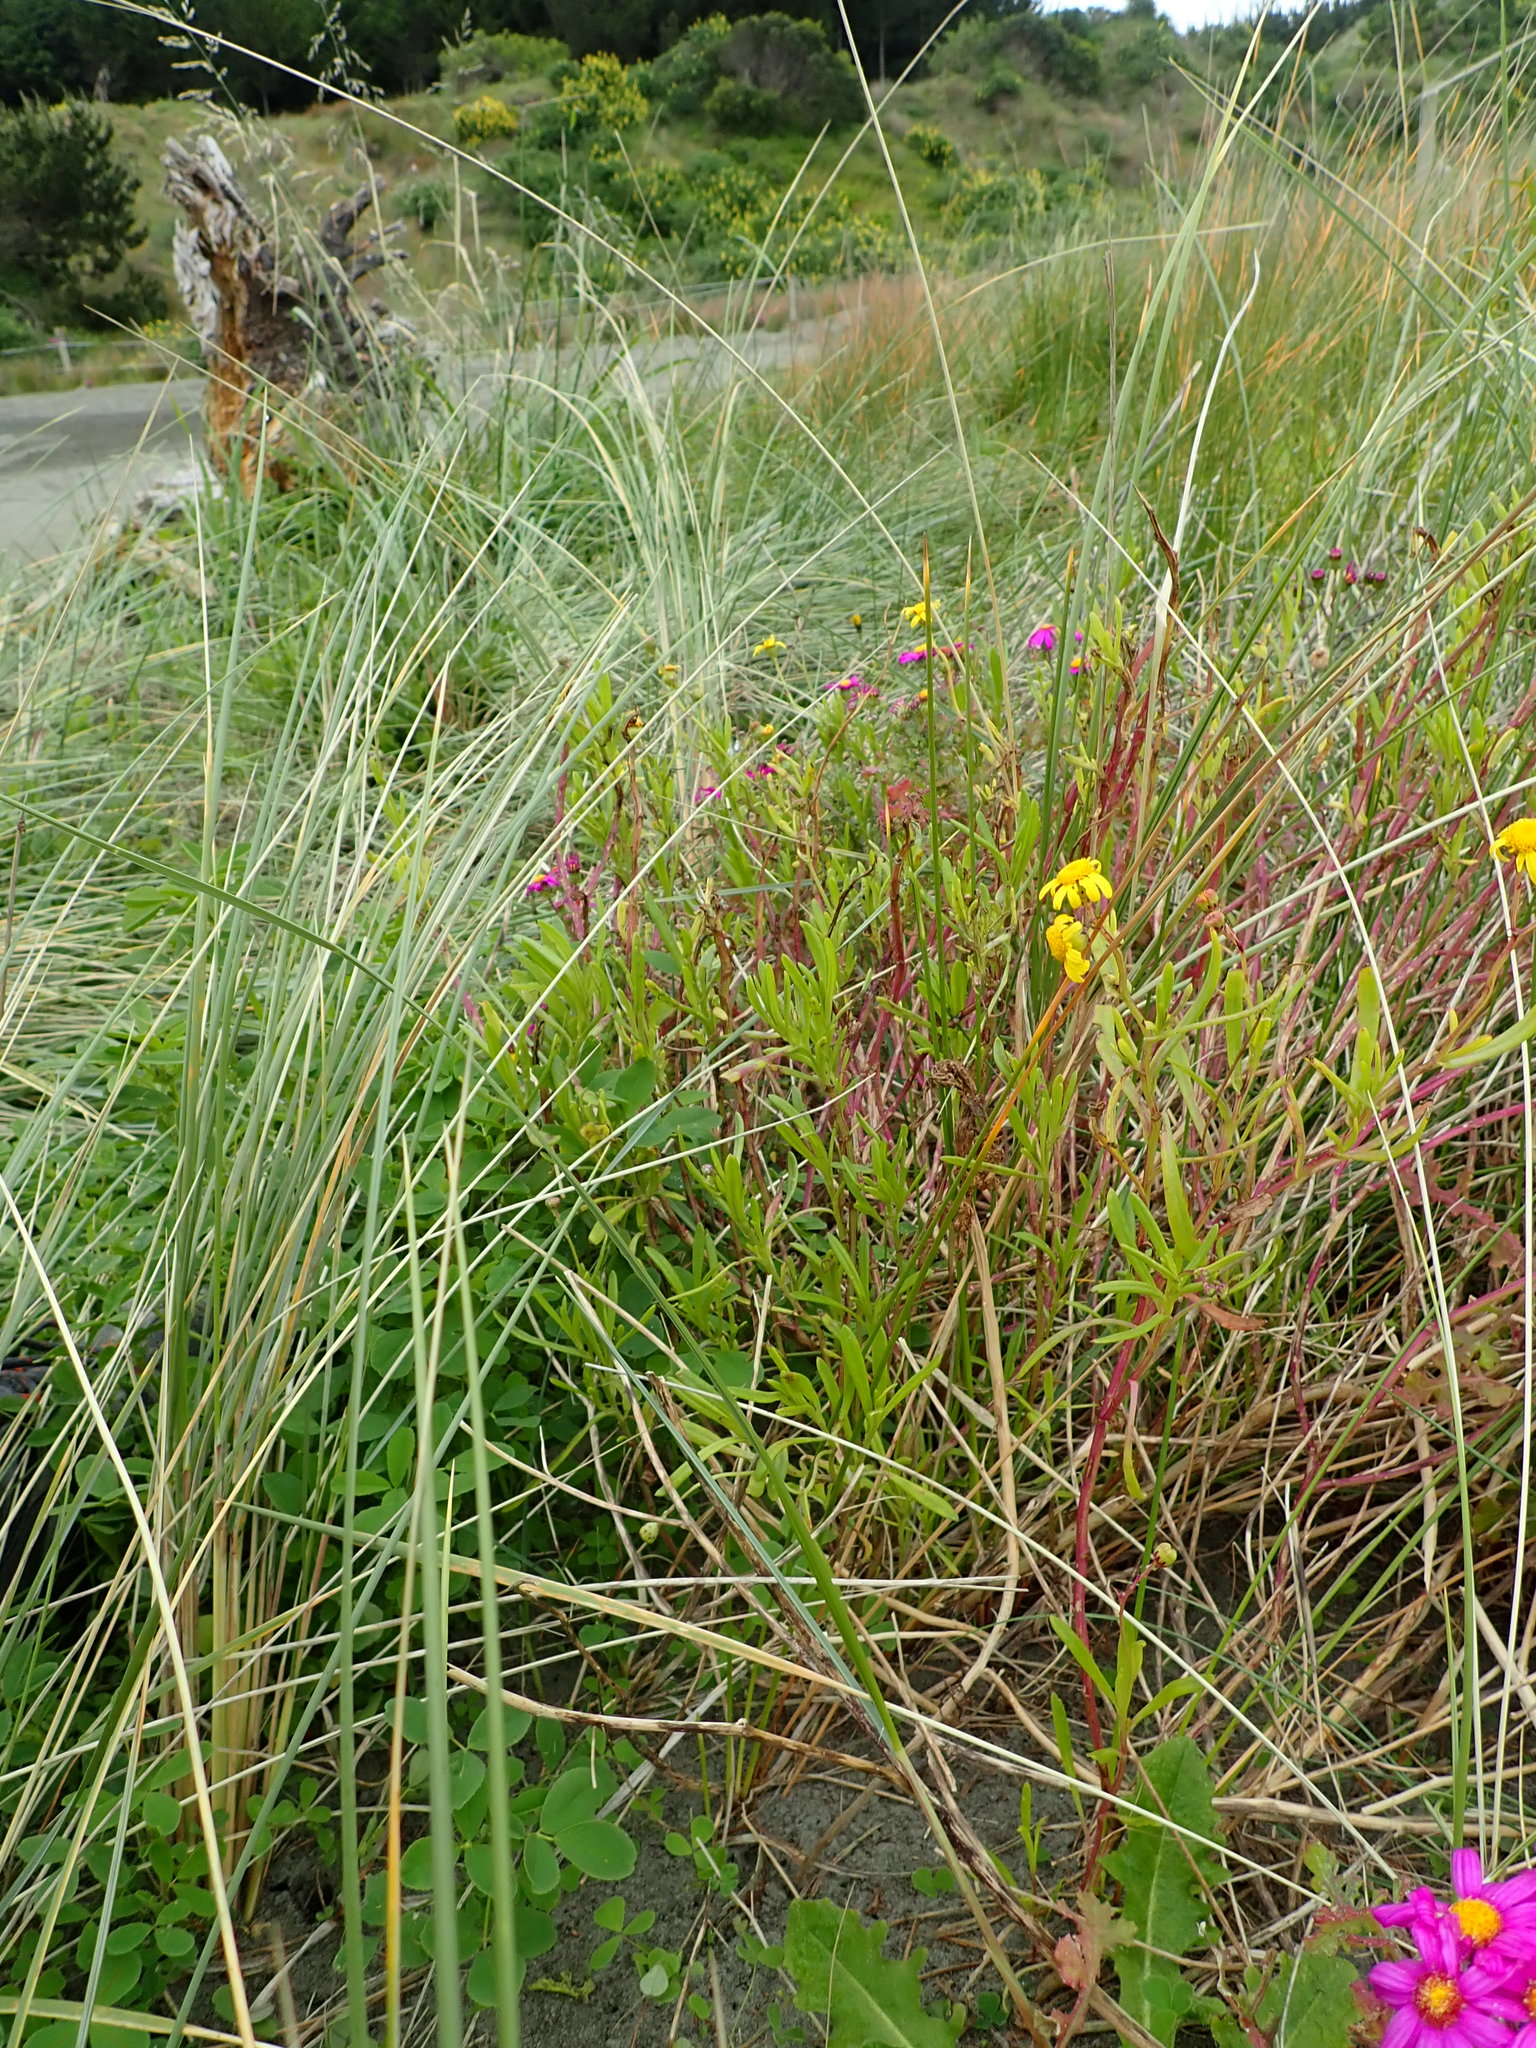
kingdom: Plantae
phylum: Tracheophyta
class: Magnoliopsida
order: Asterales
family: Asteraceae
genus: Senecio
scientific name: Senecio skirrhodon
